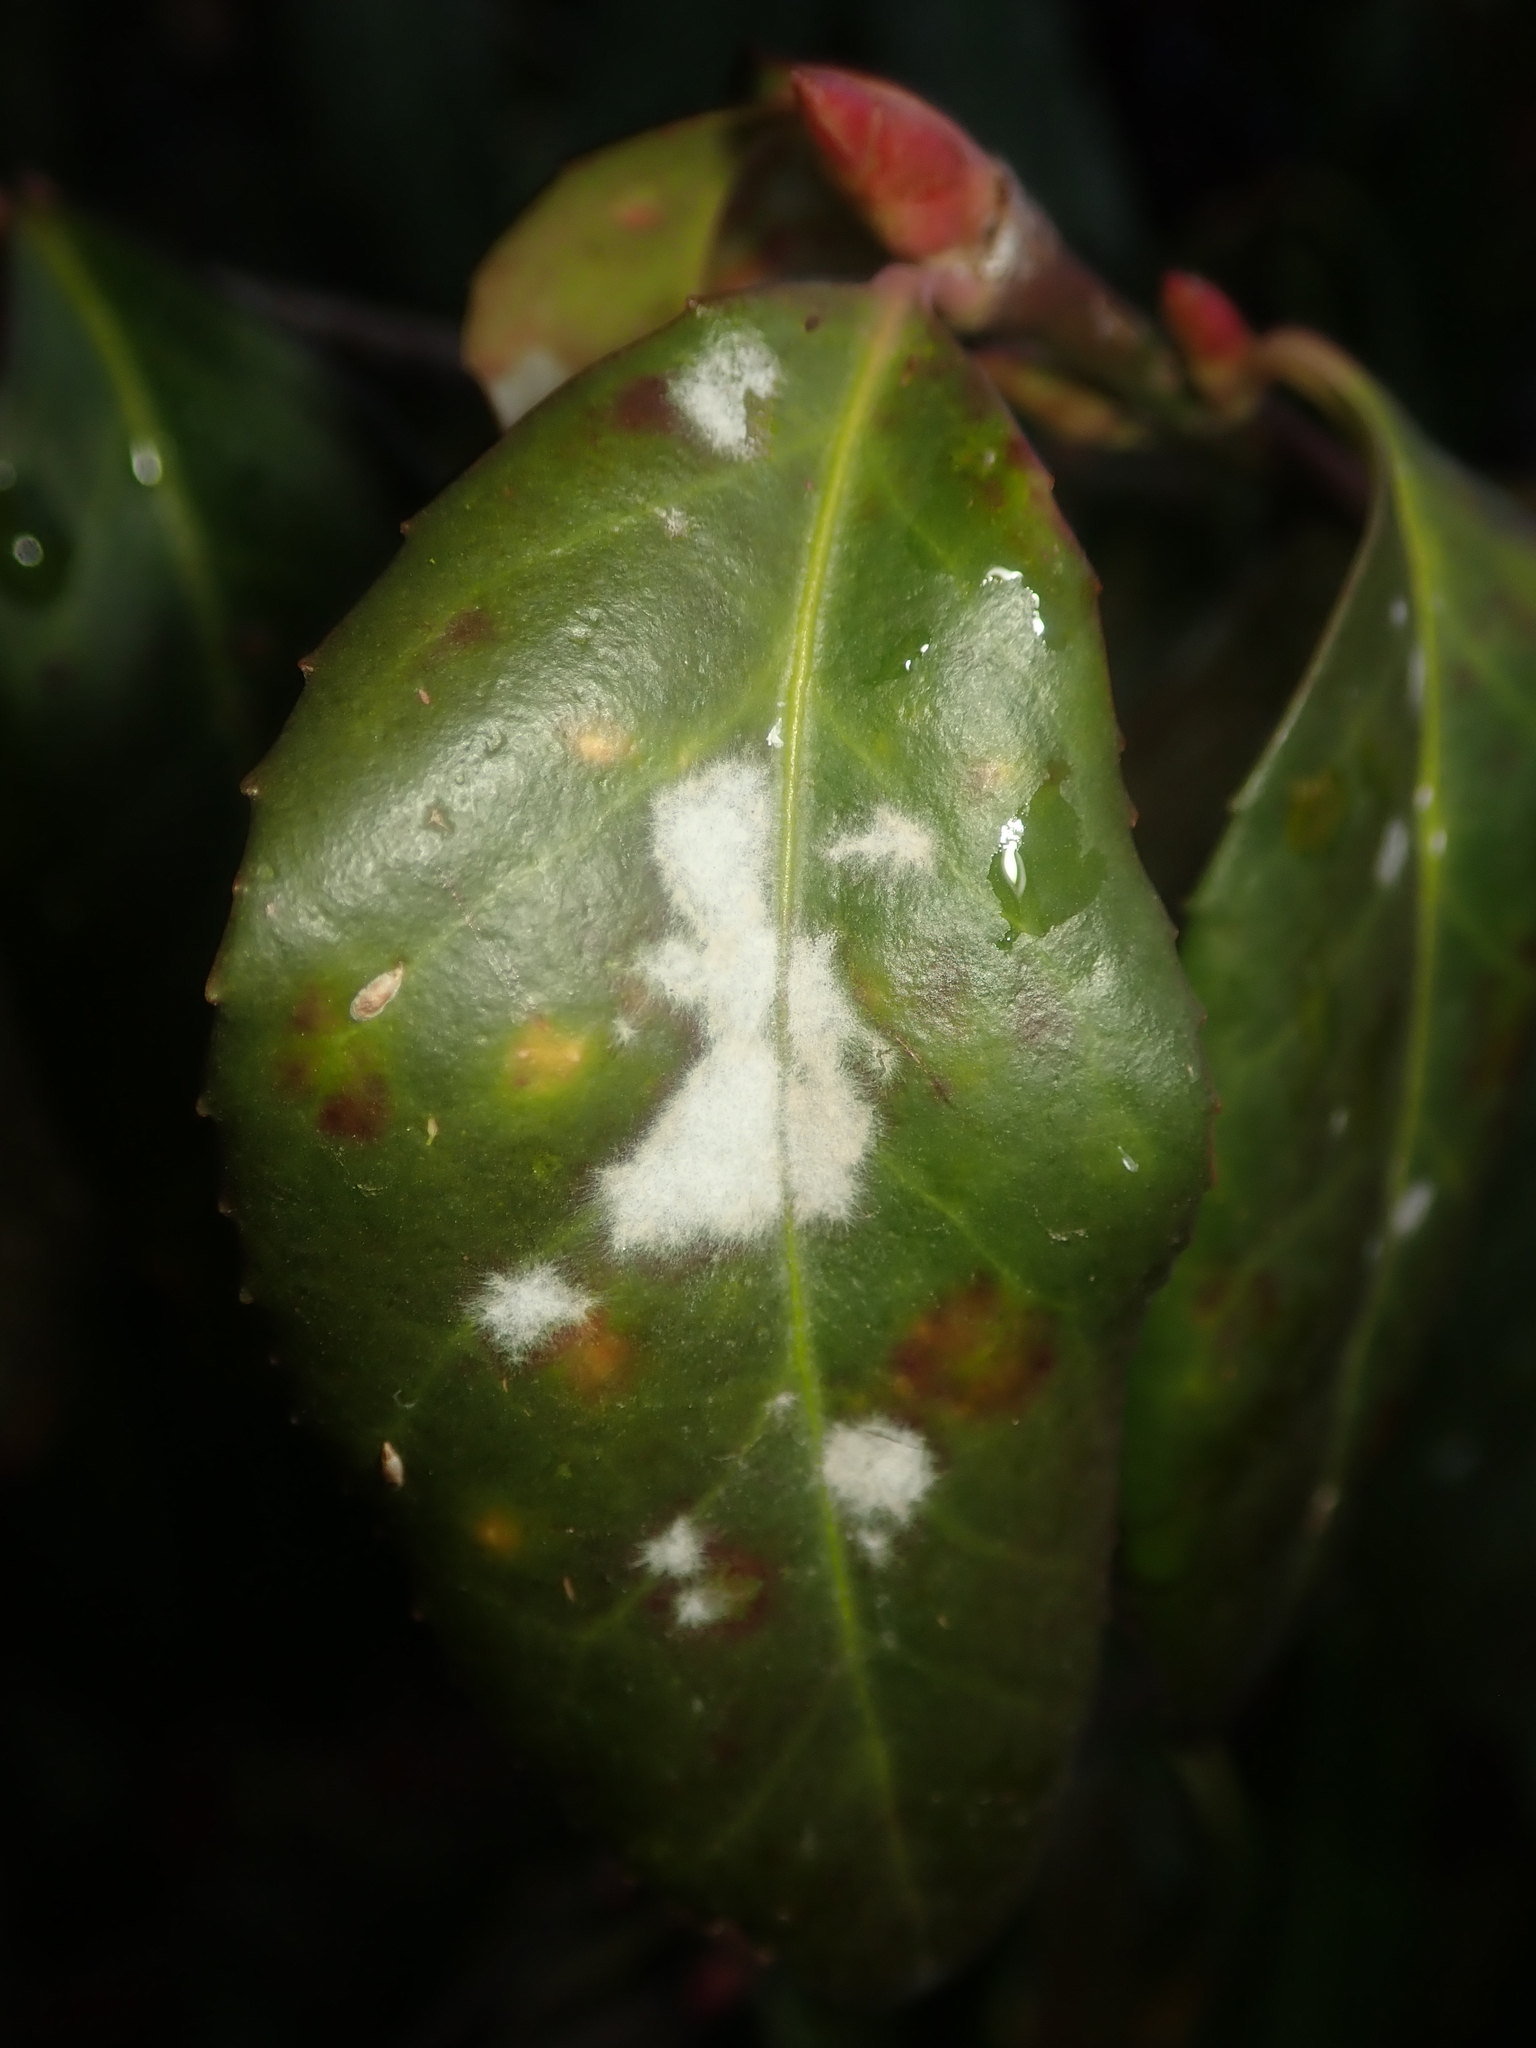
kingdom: Fungi
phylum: Ascomycota
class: Leotiomycetes
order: Helotiales
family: Erysiphaceae
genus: Erysiphe
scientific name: Erysiphe euonymicola
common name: Spindletree mildew
